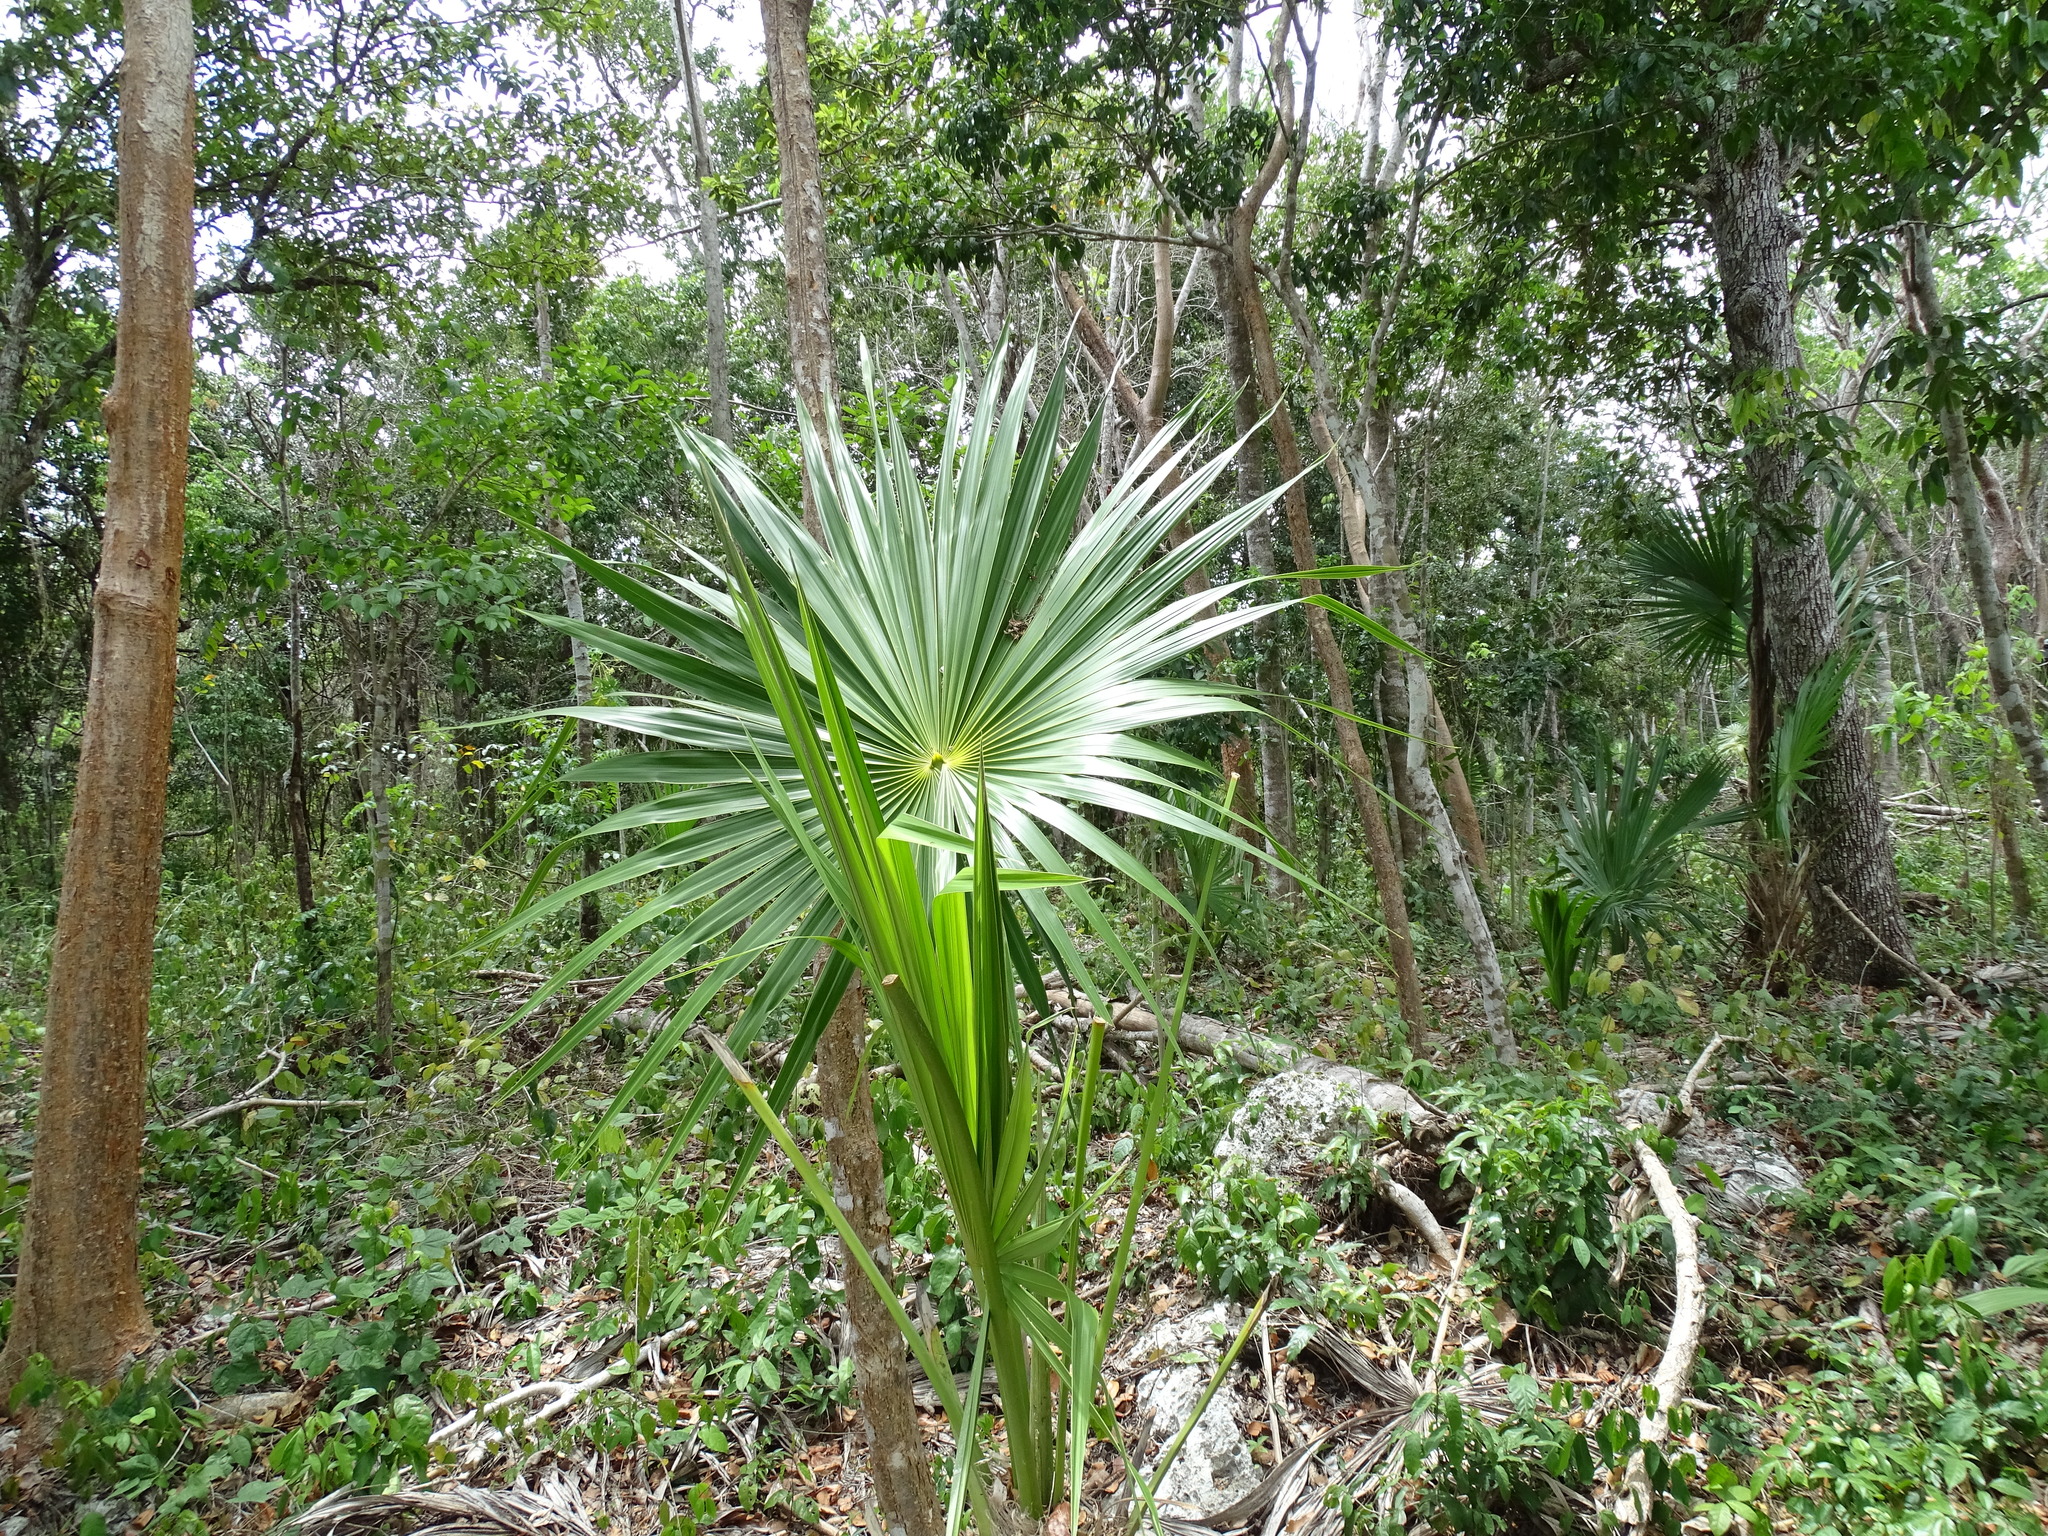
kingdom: Plantae
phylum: Tracheophyta
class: Liliopsida
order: Arecales
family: Arecaceae
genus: Sabal
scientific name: Sabal yapa
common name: Thatch palm
